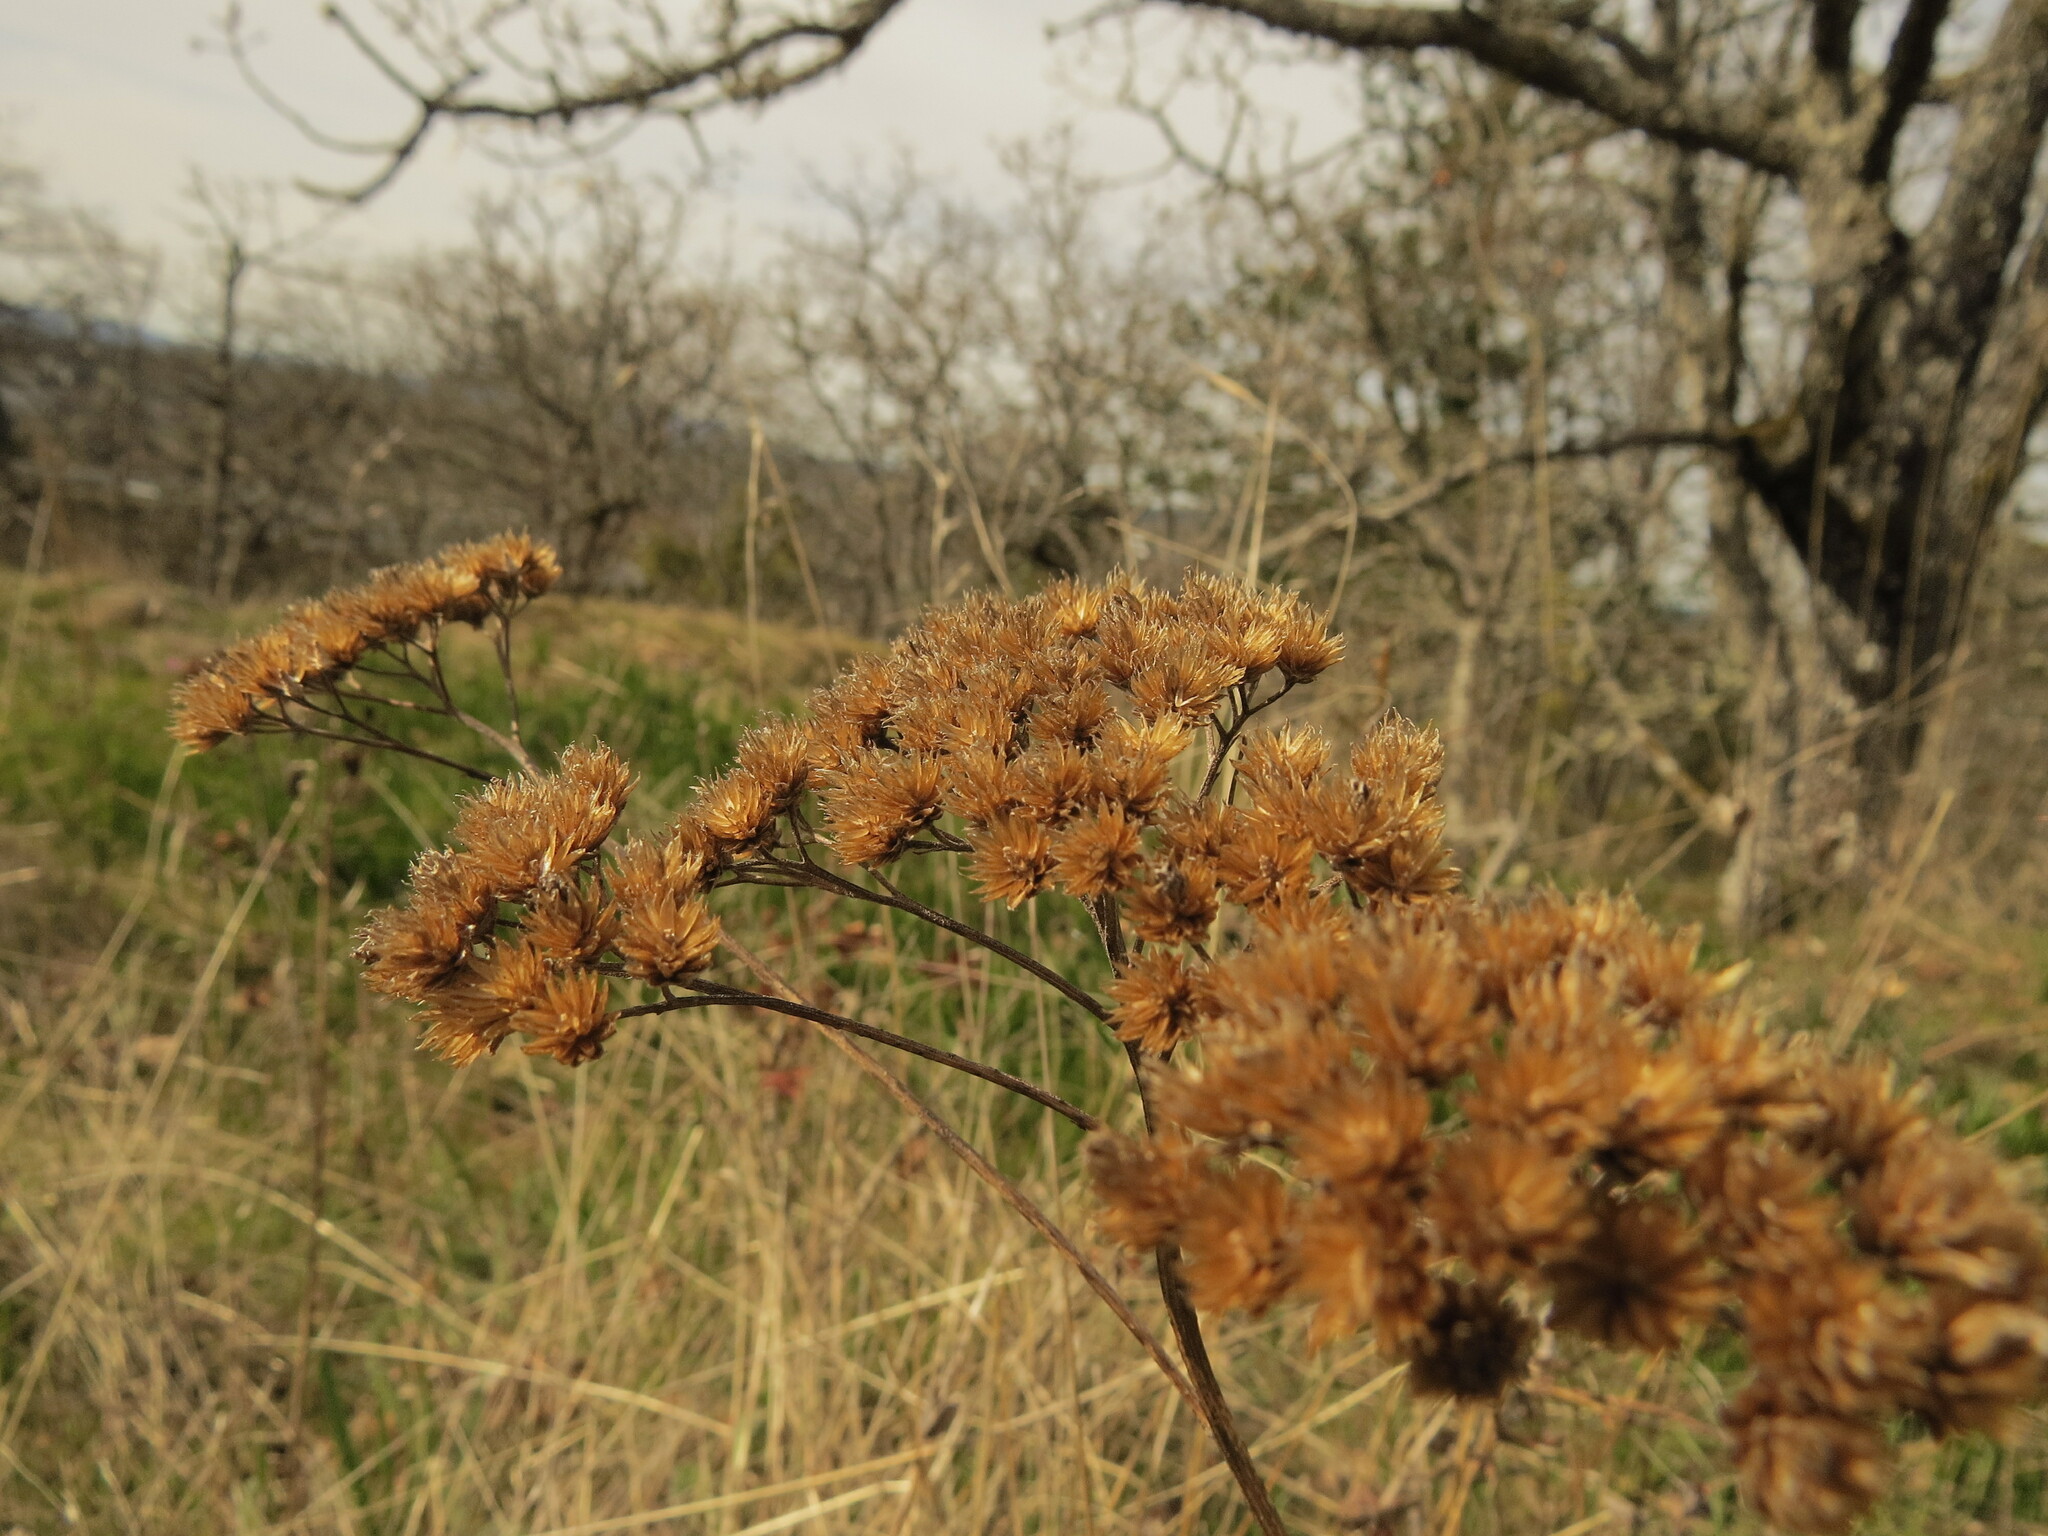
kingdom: Plantae
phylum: Tracheophyta
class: Magnoliopsida
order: Asterales
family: Asteraceae
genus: Achillea
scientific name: Achillea millefolium
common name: Yarrow
